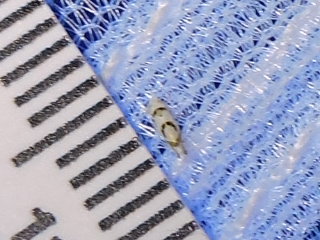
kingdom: Animalia
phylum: Arthropoda
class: Insecta
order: Hemiptera
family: Cicadellidae
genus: Eratoneura
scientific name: Eratoneura lunata
